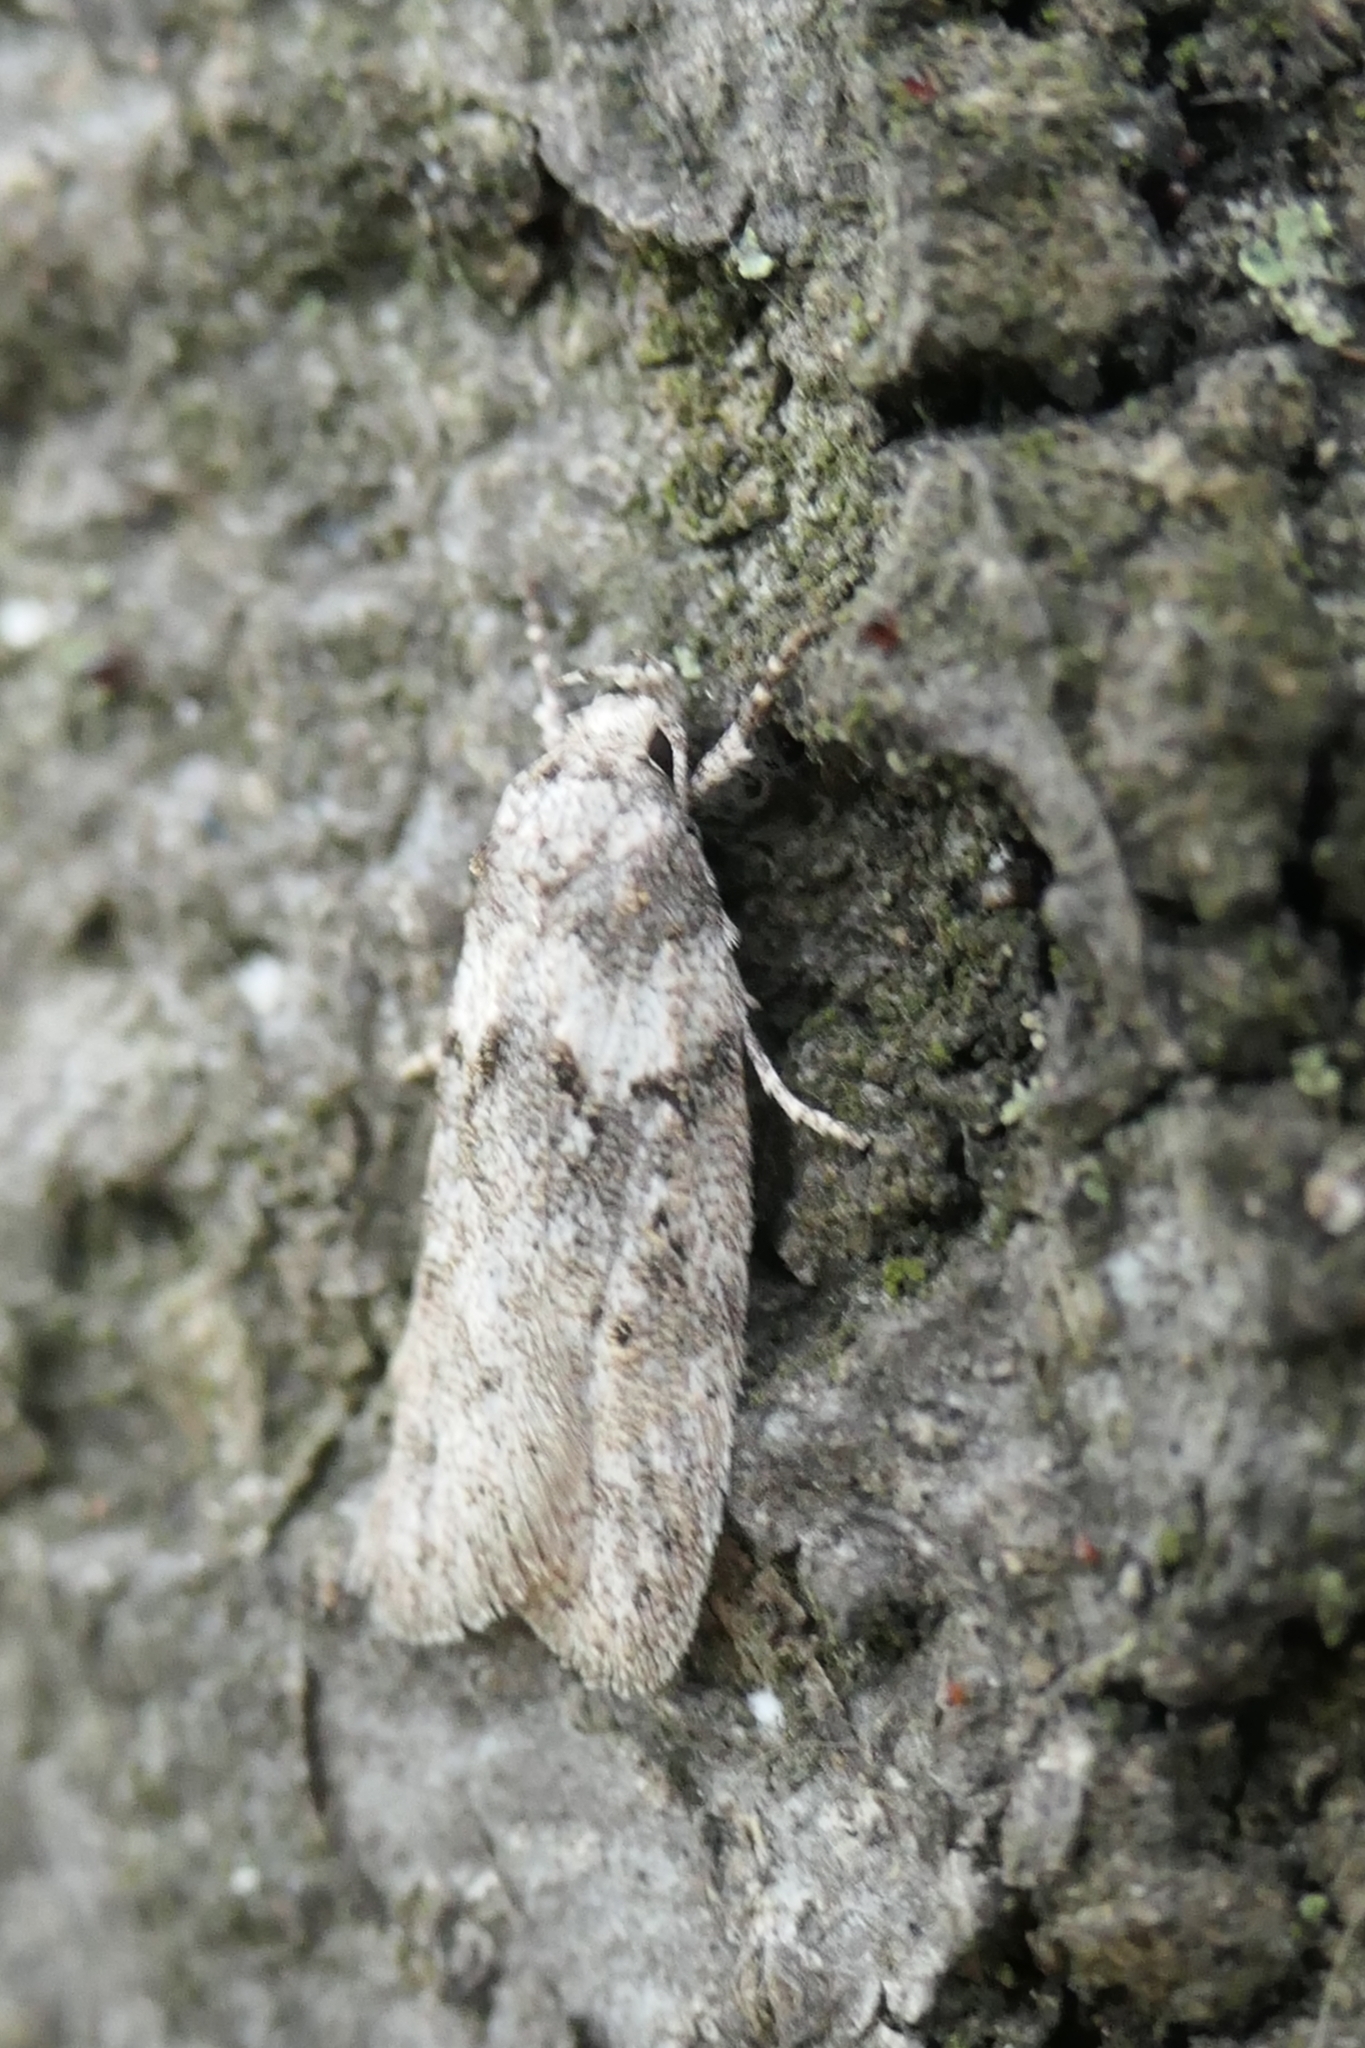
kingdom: Animalia
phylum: Arthropoda
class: Insecta
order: Lepidoptera
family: Oecophoridae
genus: Izatha
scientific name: Izatha convulsella
